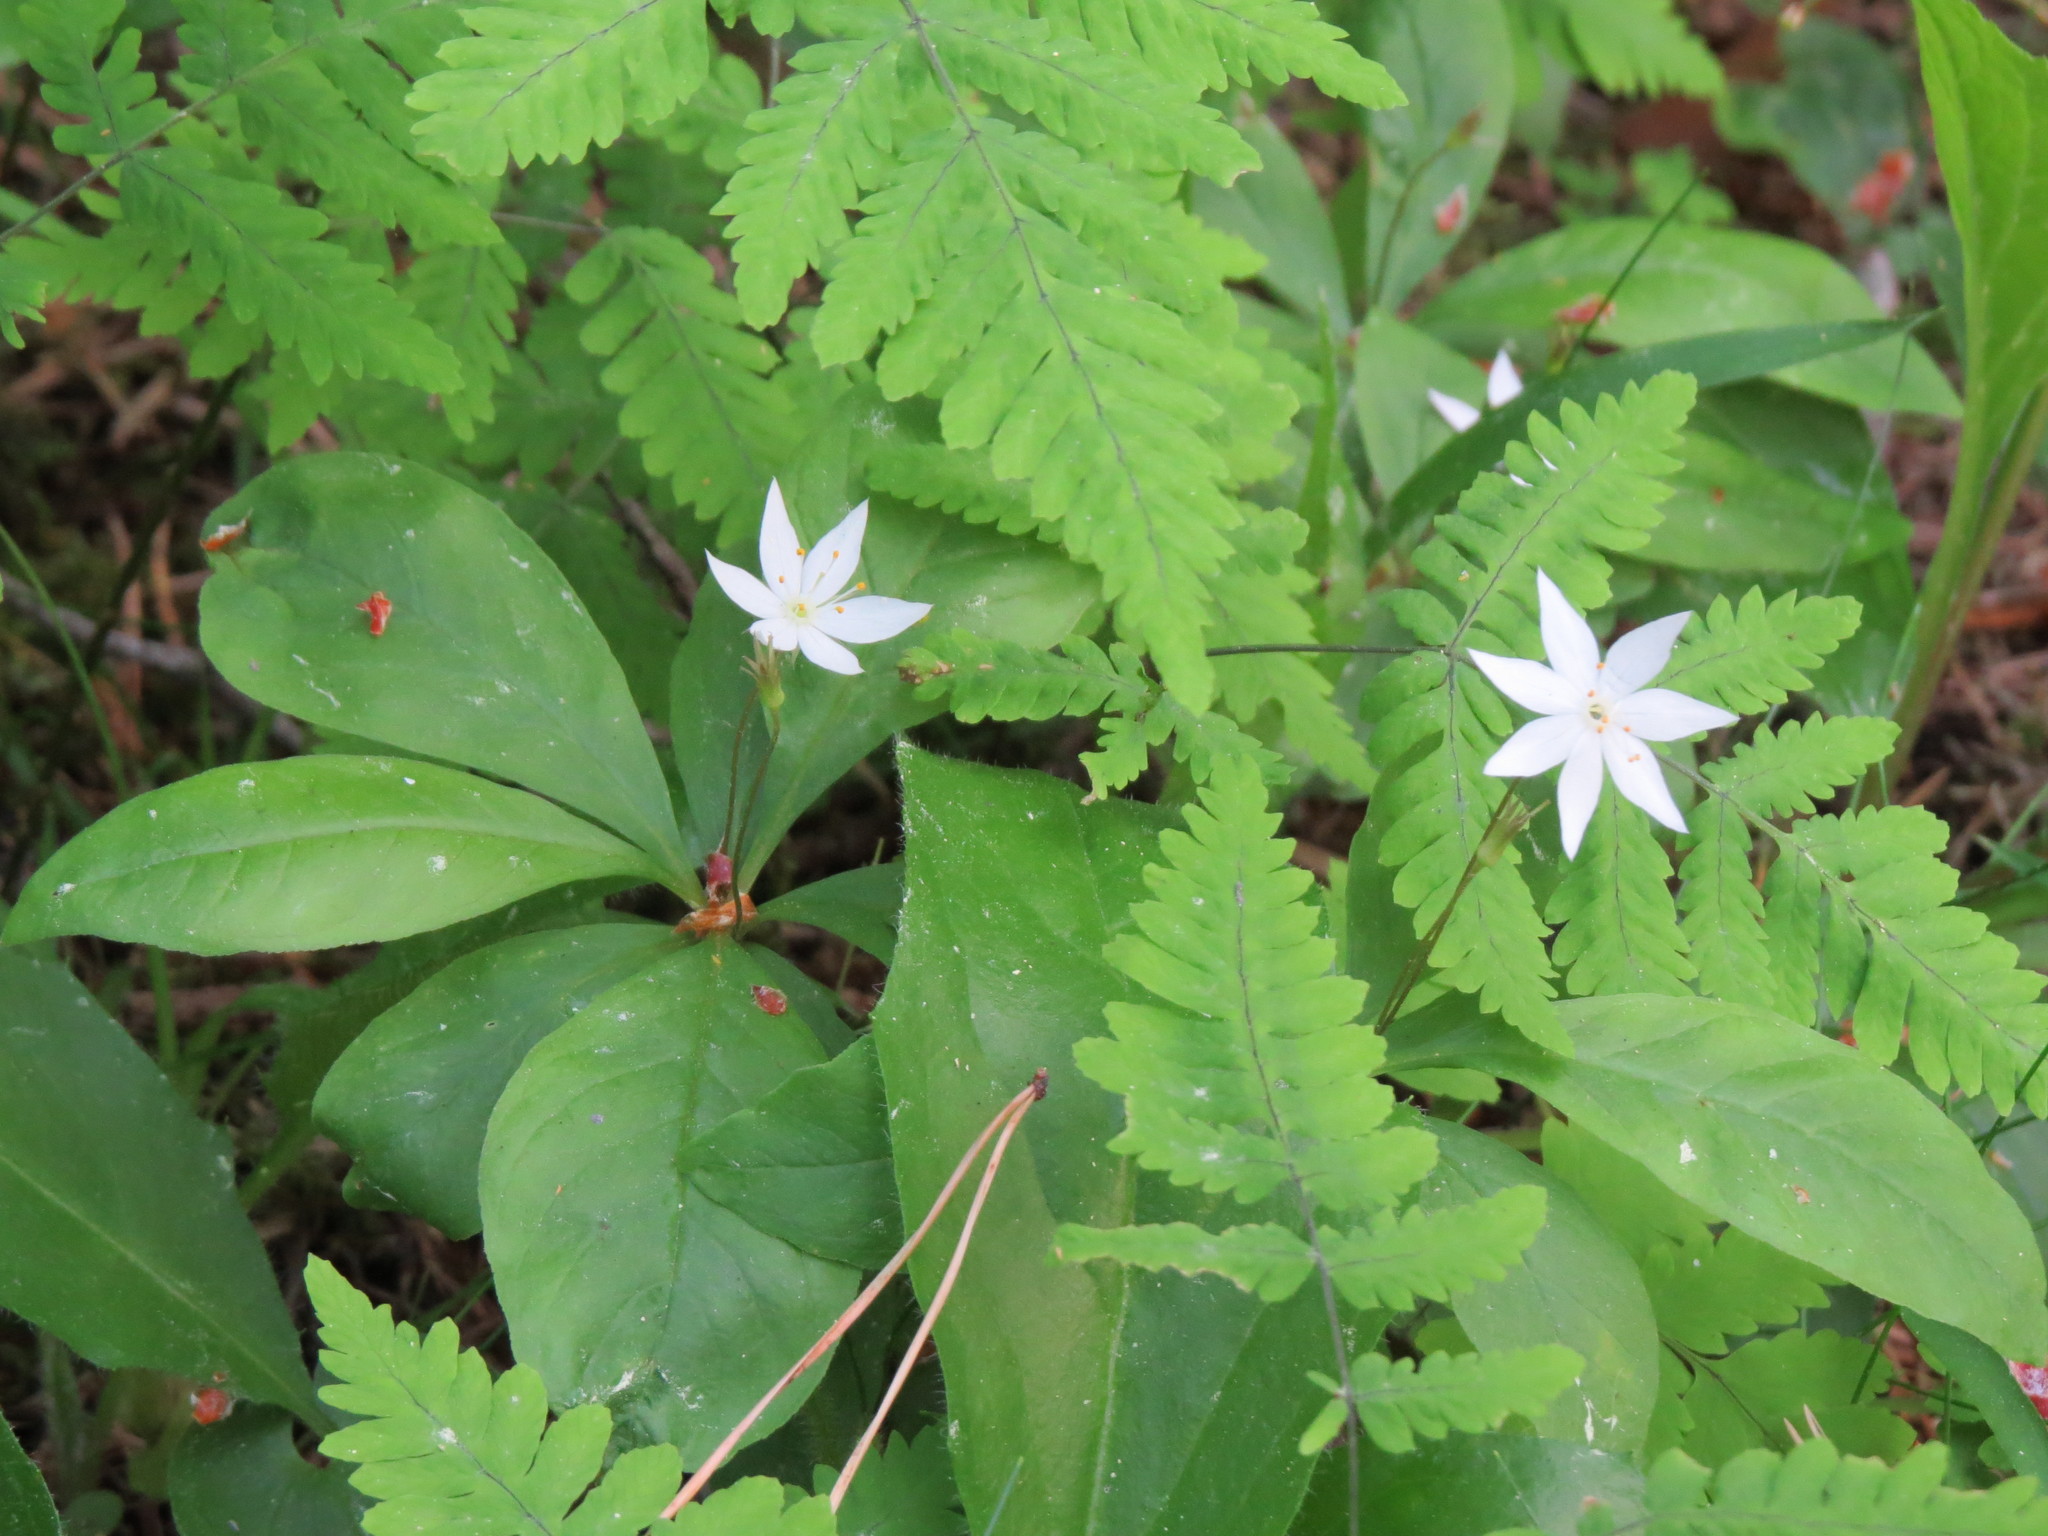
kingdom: Plantae
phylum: Tracheophyta
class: Magnoliopsida
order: Ericales
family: Primulaceae
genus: Lysimachia
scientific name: Lysimachia europaea
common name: Arctic starflower
